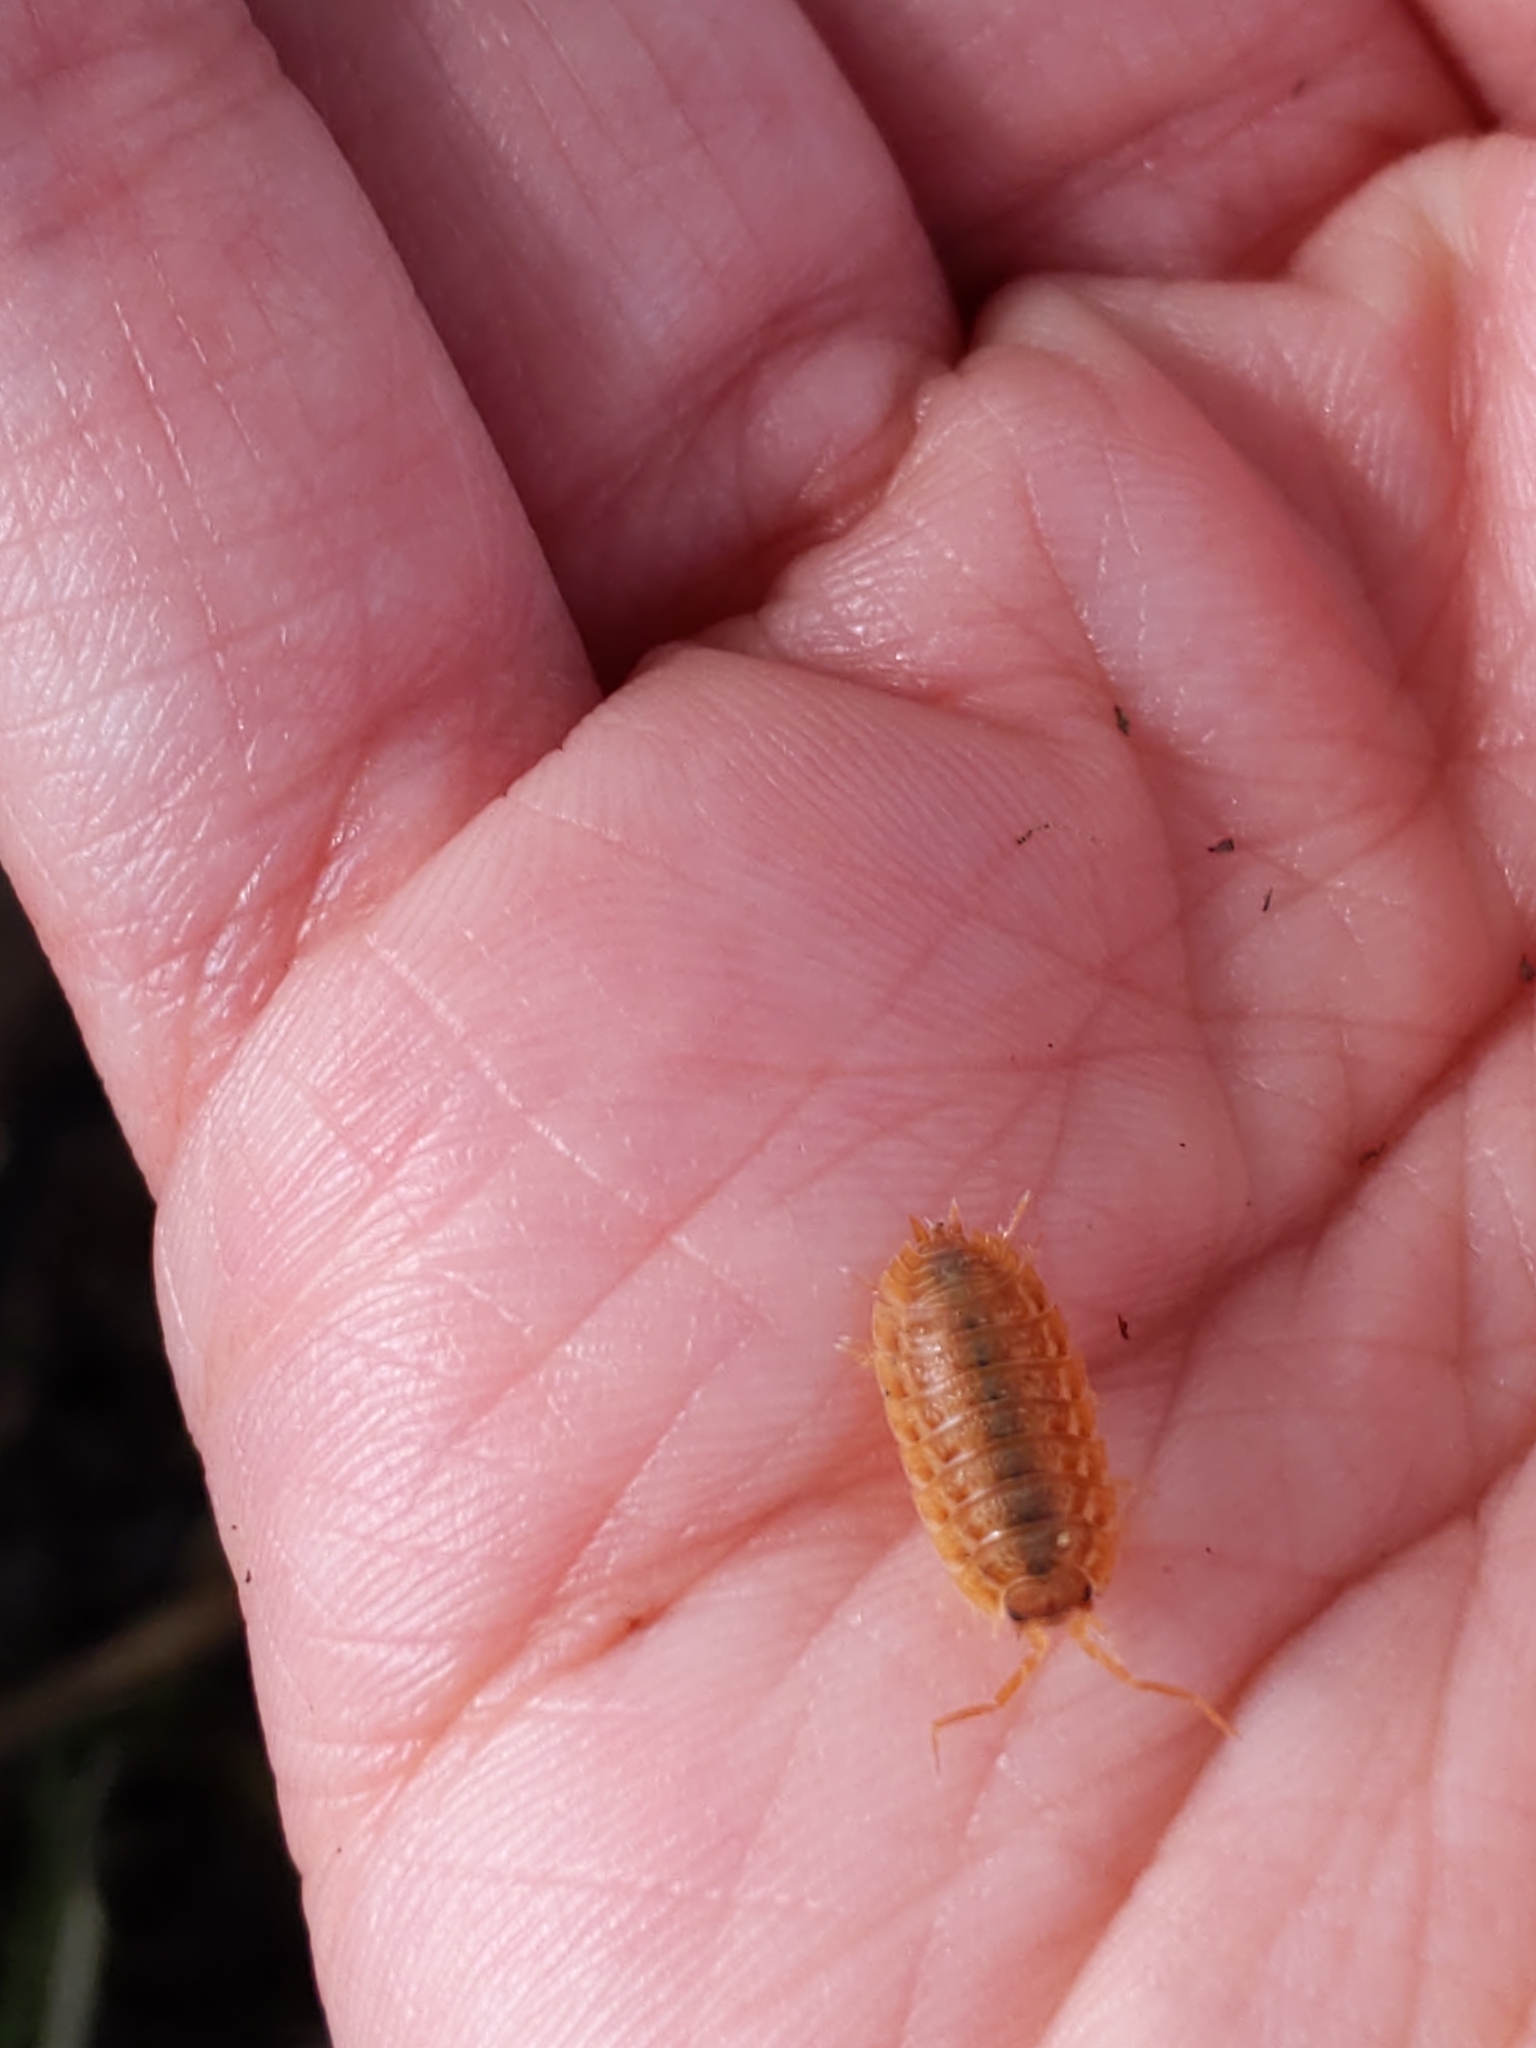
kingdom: Animalia
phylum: Arthropoda
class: Malacostraca
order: Isopoda
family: Trachelipodidae
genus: Trachelipus
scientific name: Trachelipus rathkii
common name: Isopod
